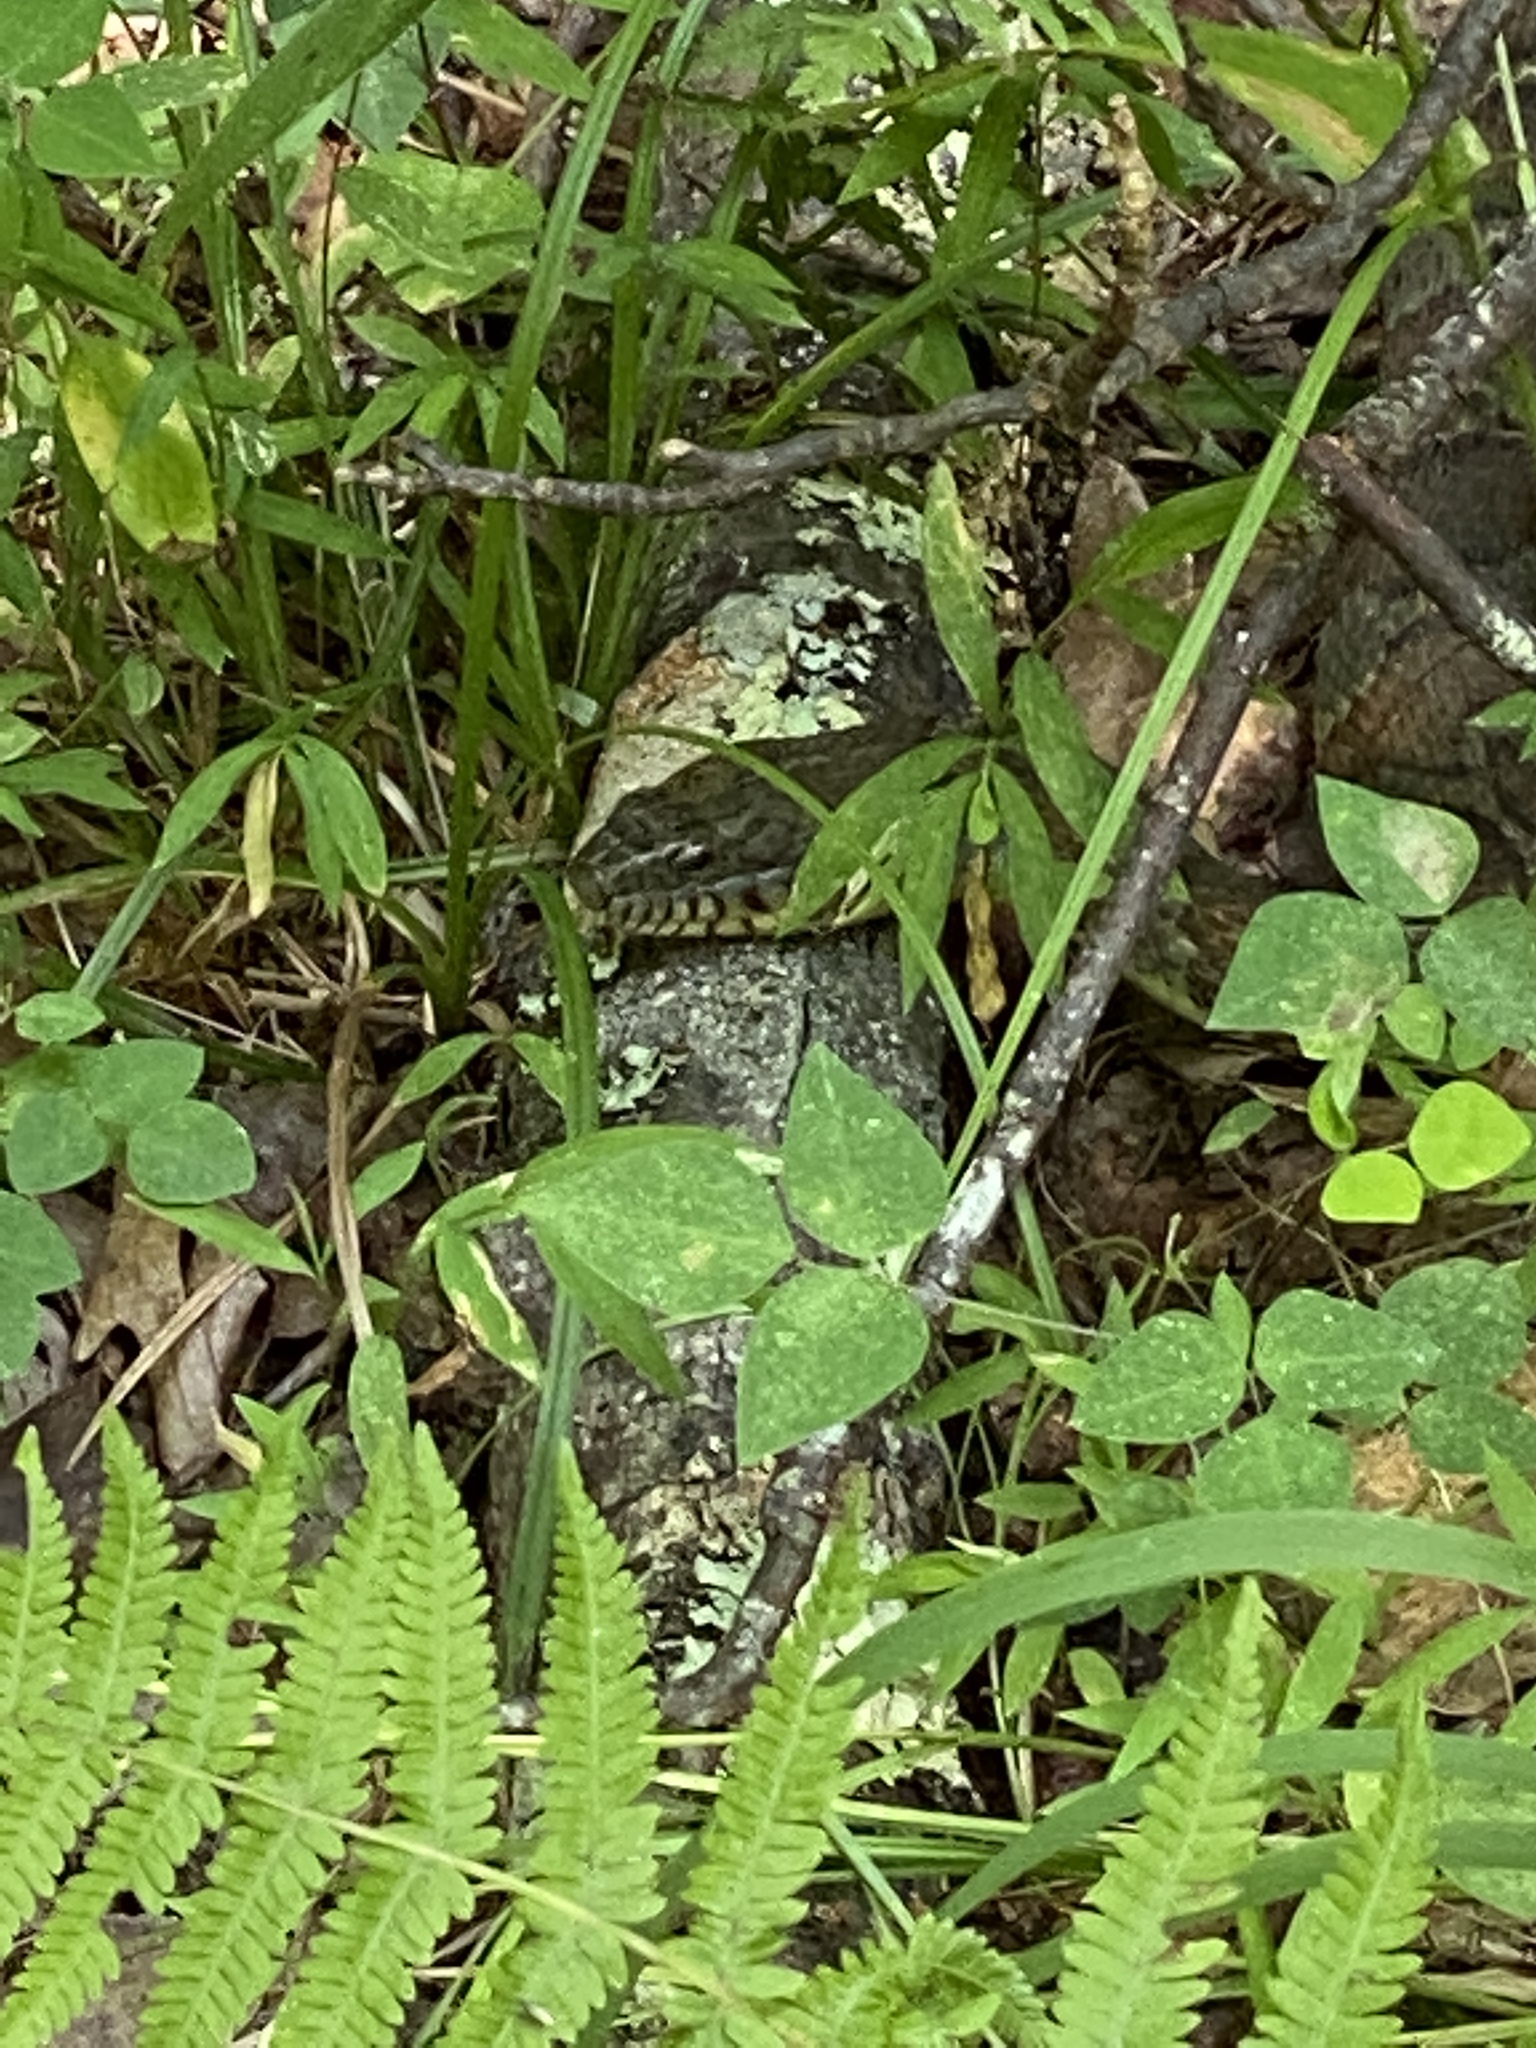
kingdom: Animalia
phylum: Chordata
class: Squamata
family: Colubridae
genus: Nerodia
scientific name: Nerodia sipedon
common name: Northern water snake
